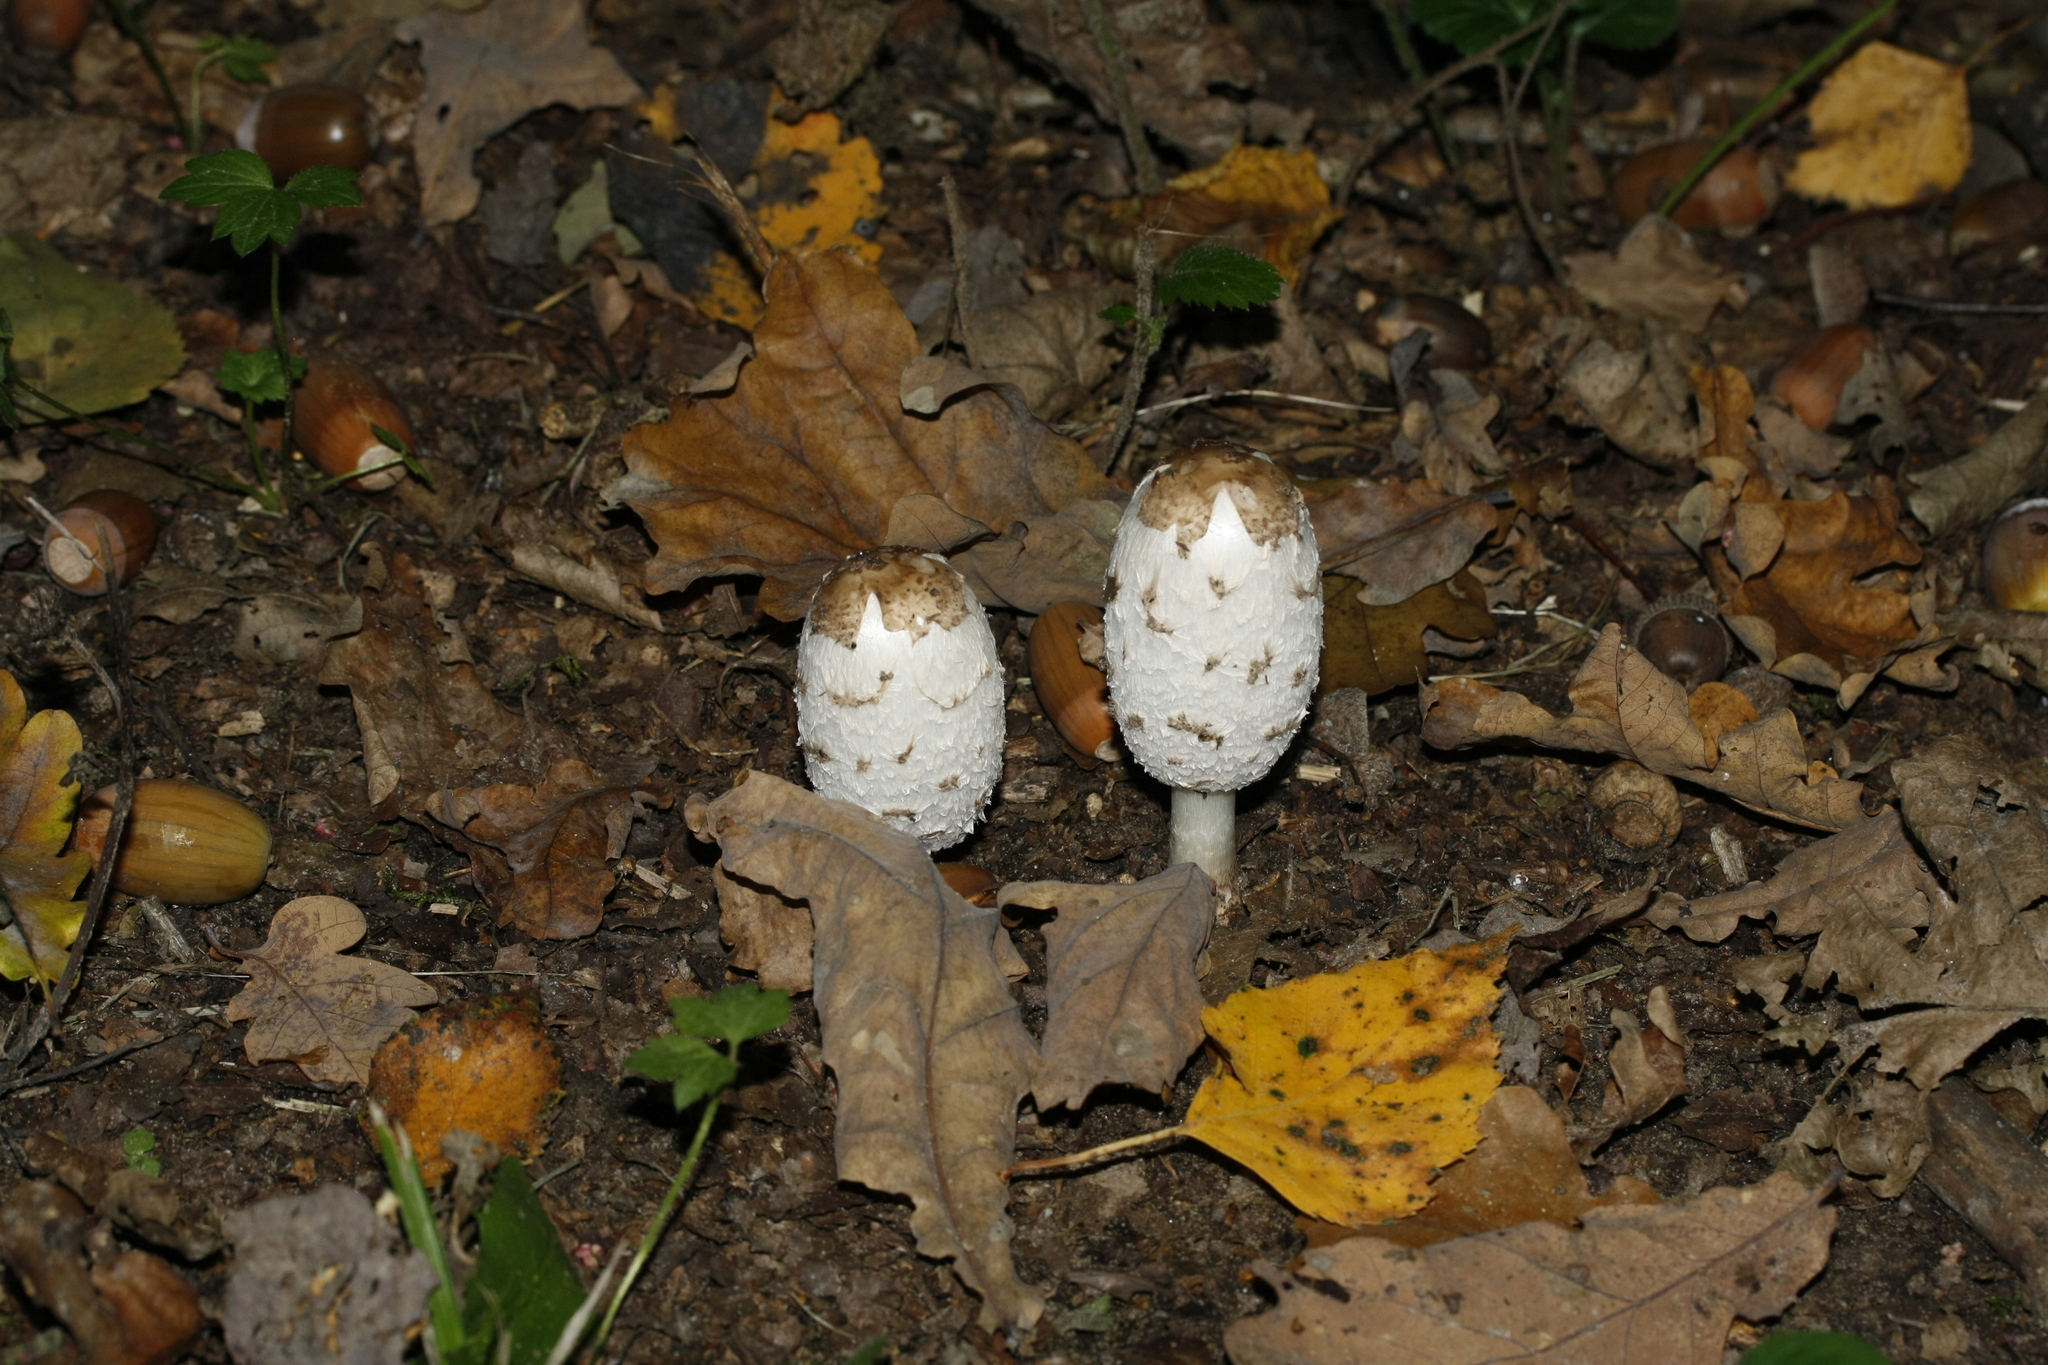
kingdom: Fungi
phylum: Basidiomycota
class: Agaricomycetes
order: Agaricales
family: Agaricaceae
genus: Coprinus
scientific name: Coprinus comatus
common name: Lawyer's wig
